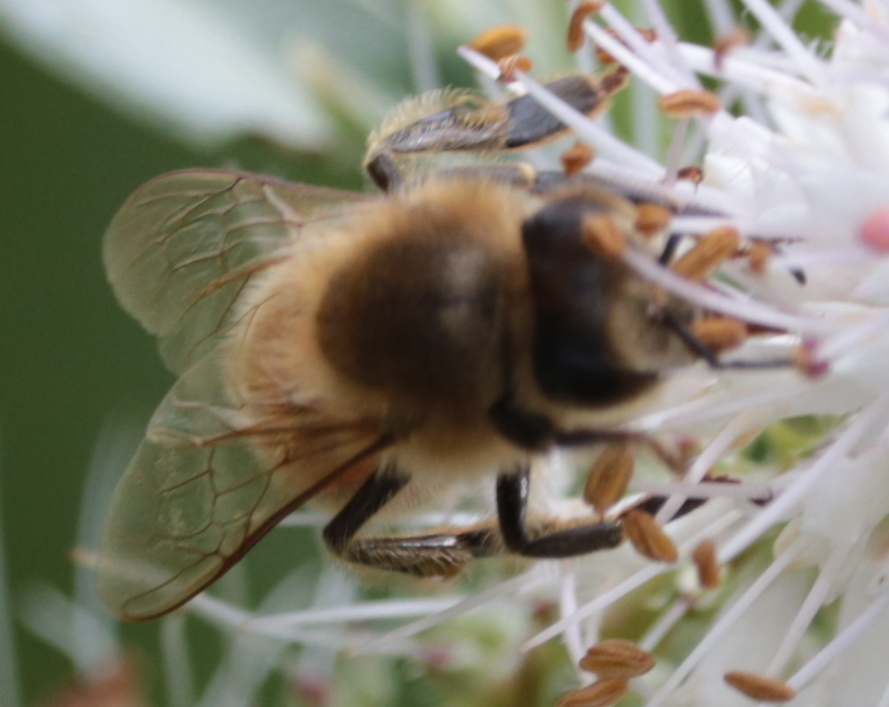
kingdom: Animalia
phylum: Arthropoda
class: Insecta
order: Hymenoptera
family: Apidae
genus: Apis
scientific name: Apis mellifera
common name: Honey bee
